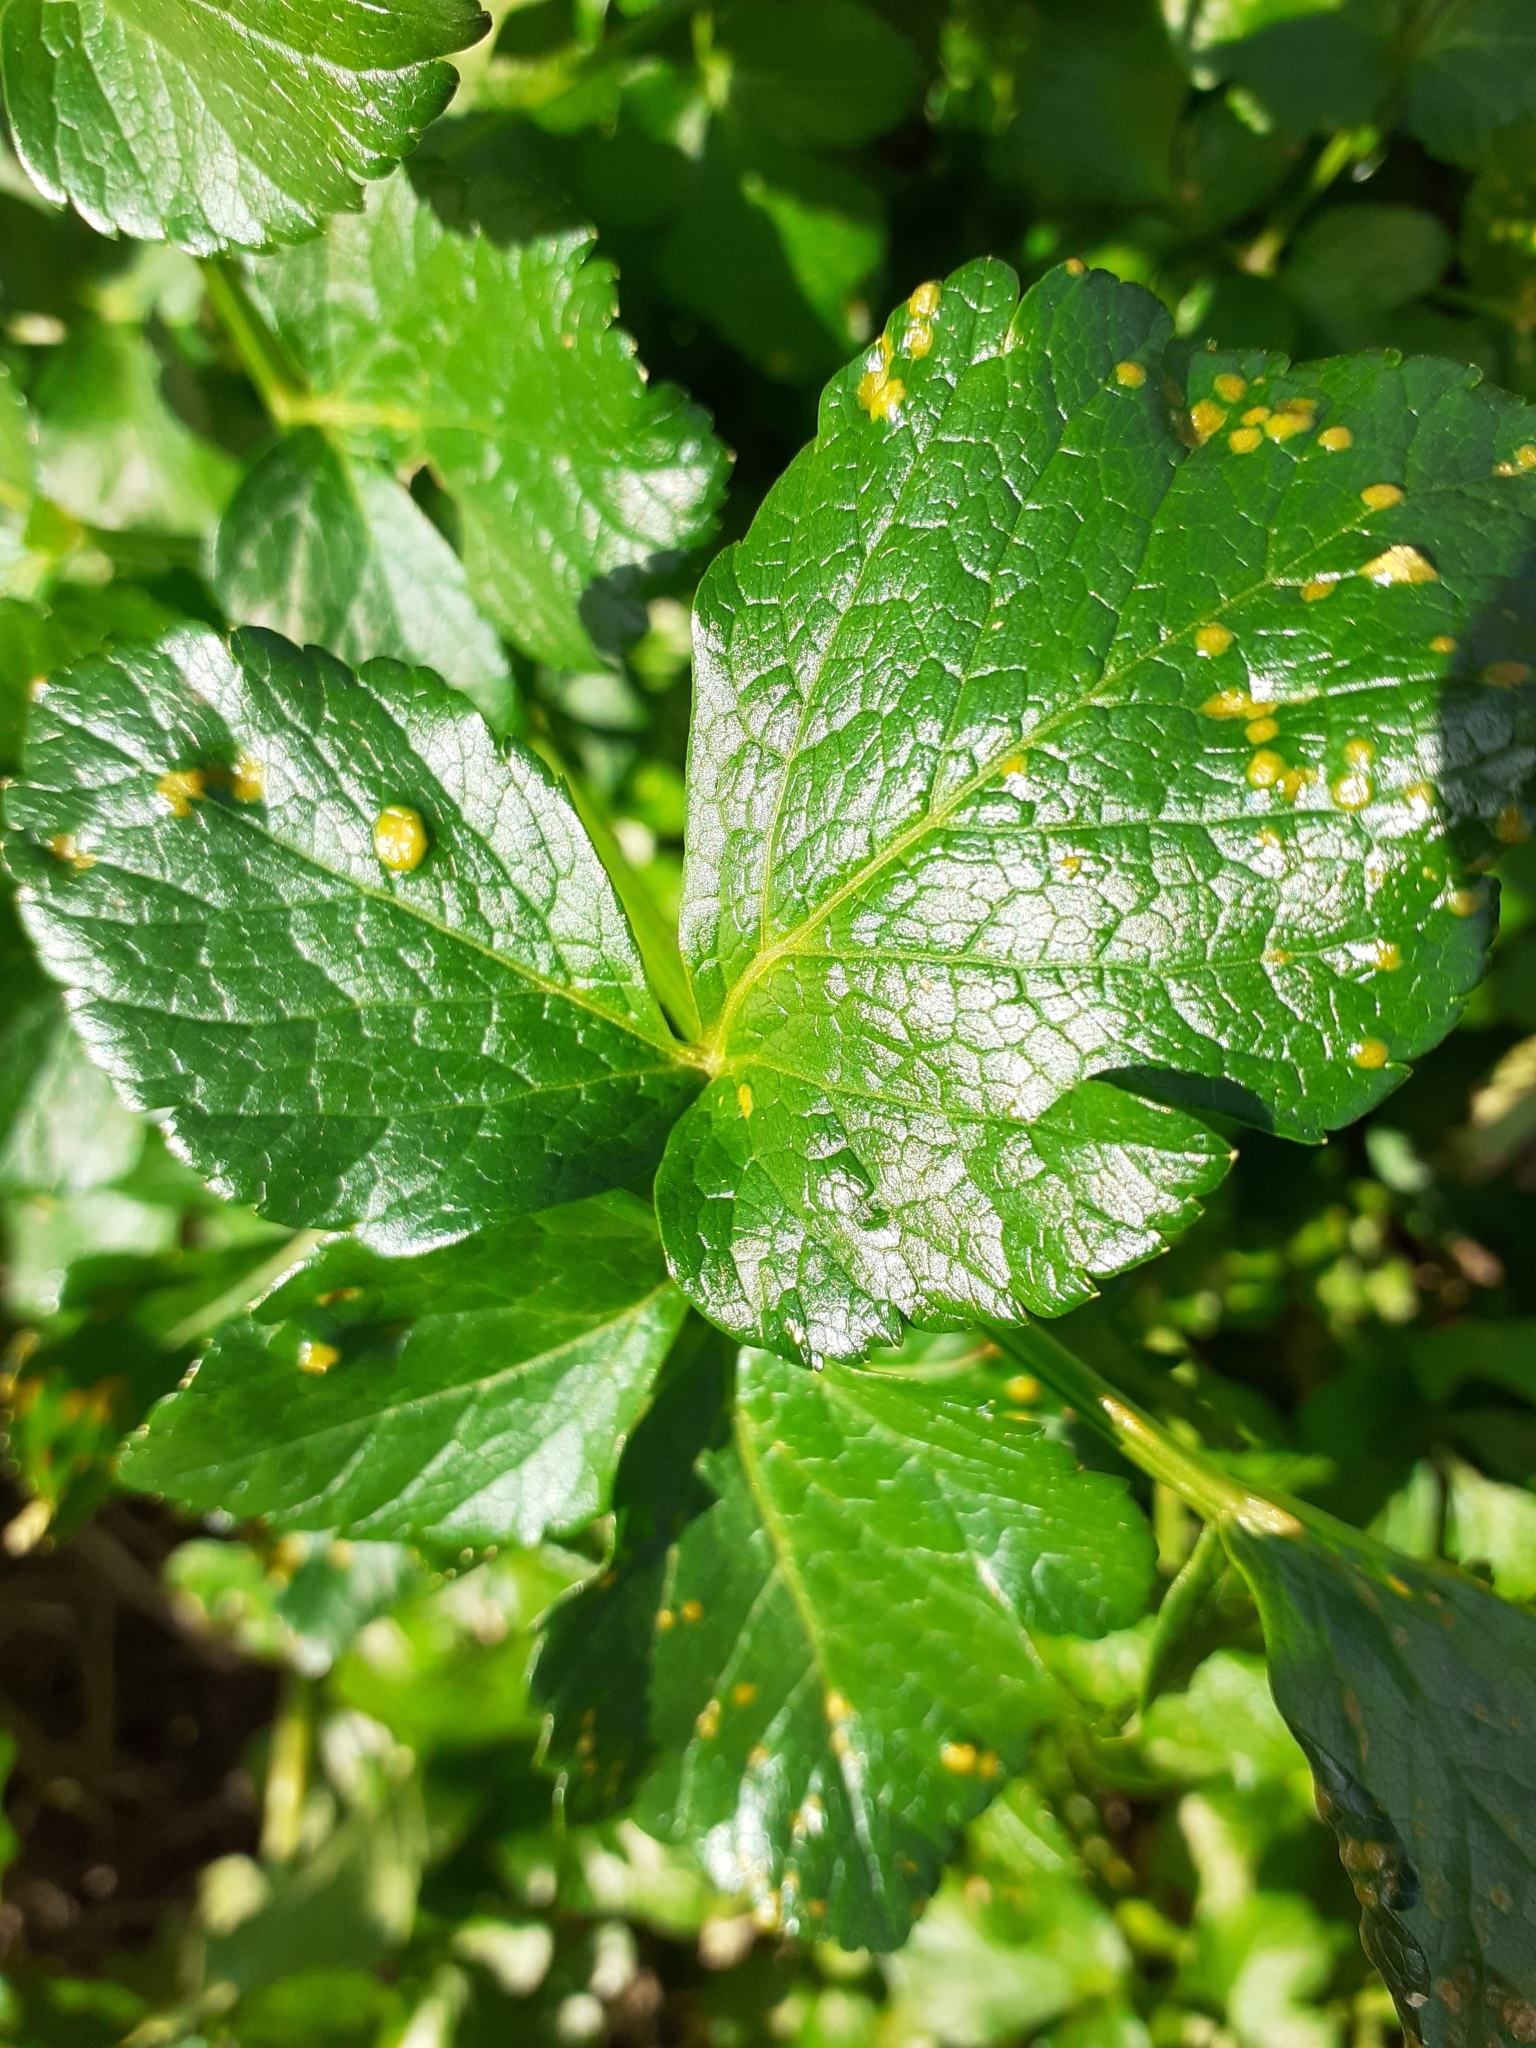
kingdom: Fungi
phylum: Basidiomycota
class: Pucciniomycetes
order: Pucciniales
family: Pucciniaceae
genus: Puccinia
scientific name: Puccinia smyrnii
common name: Alexanders rust
